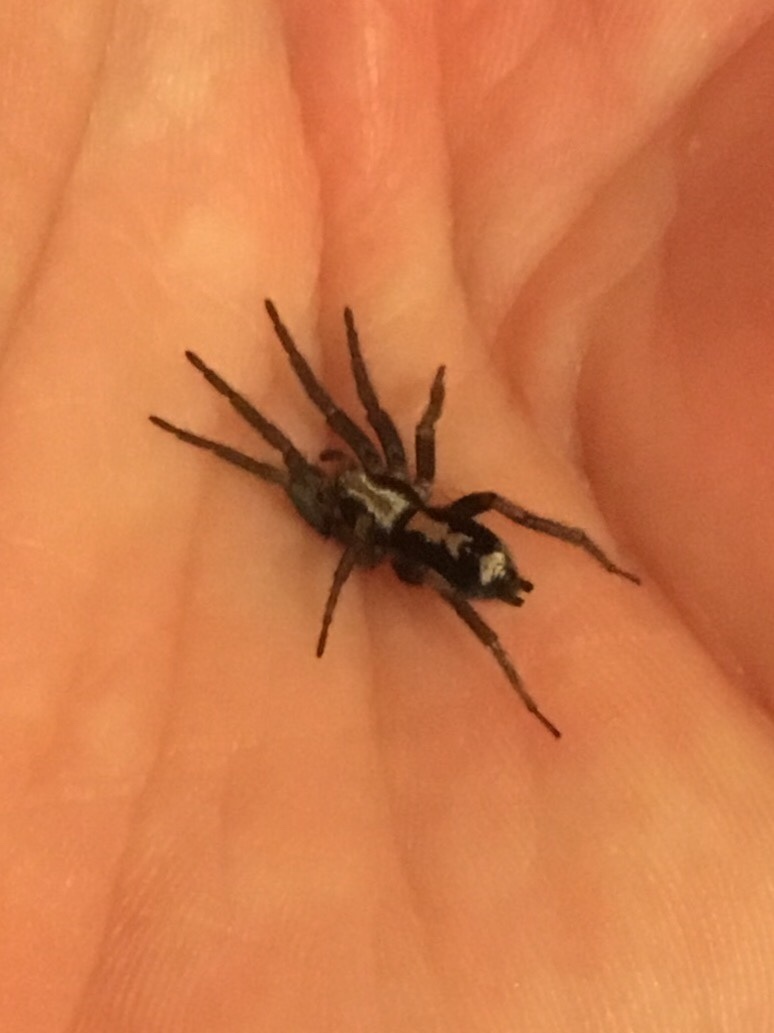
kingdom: Animalia
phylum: Arthropoda
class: Arachnida
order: Araneae
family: Gnaphosidae
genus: Herpyllus
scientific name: Herpyllus ecclesiasticus
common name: Eastern parson spider
